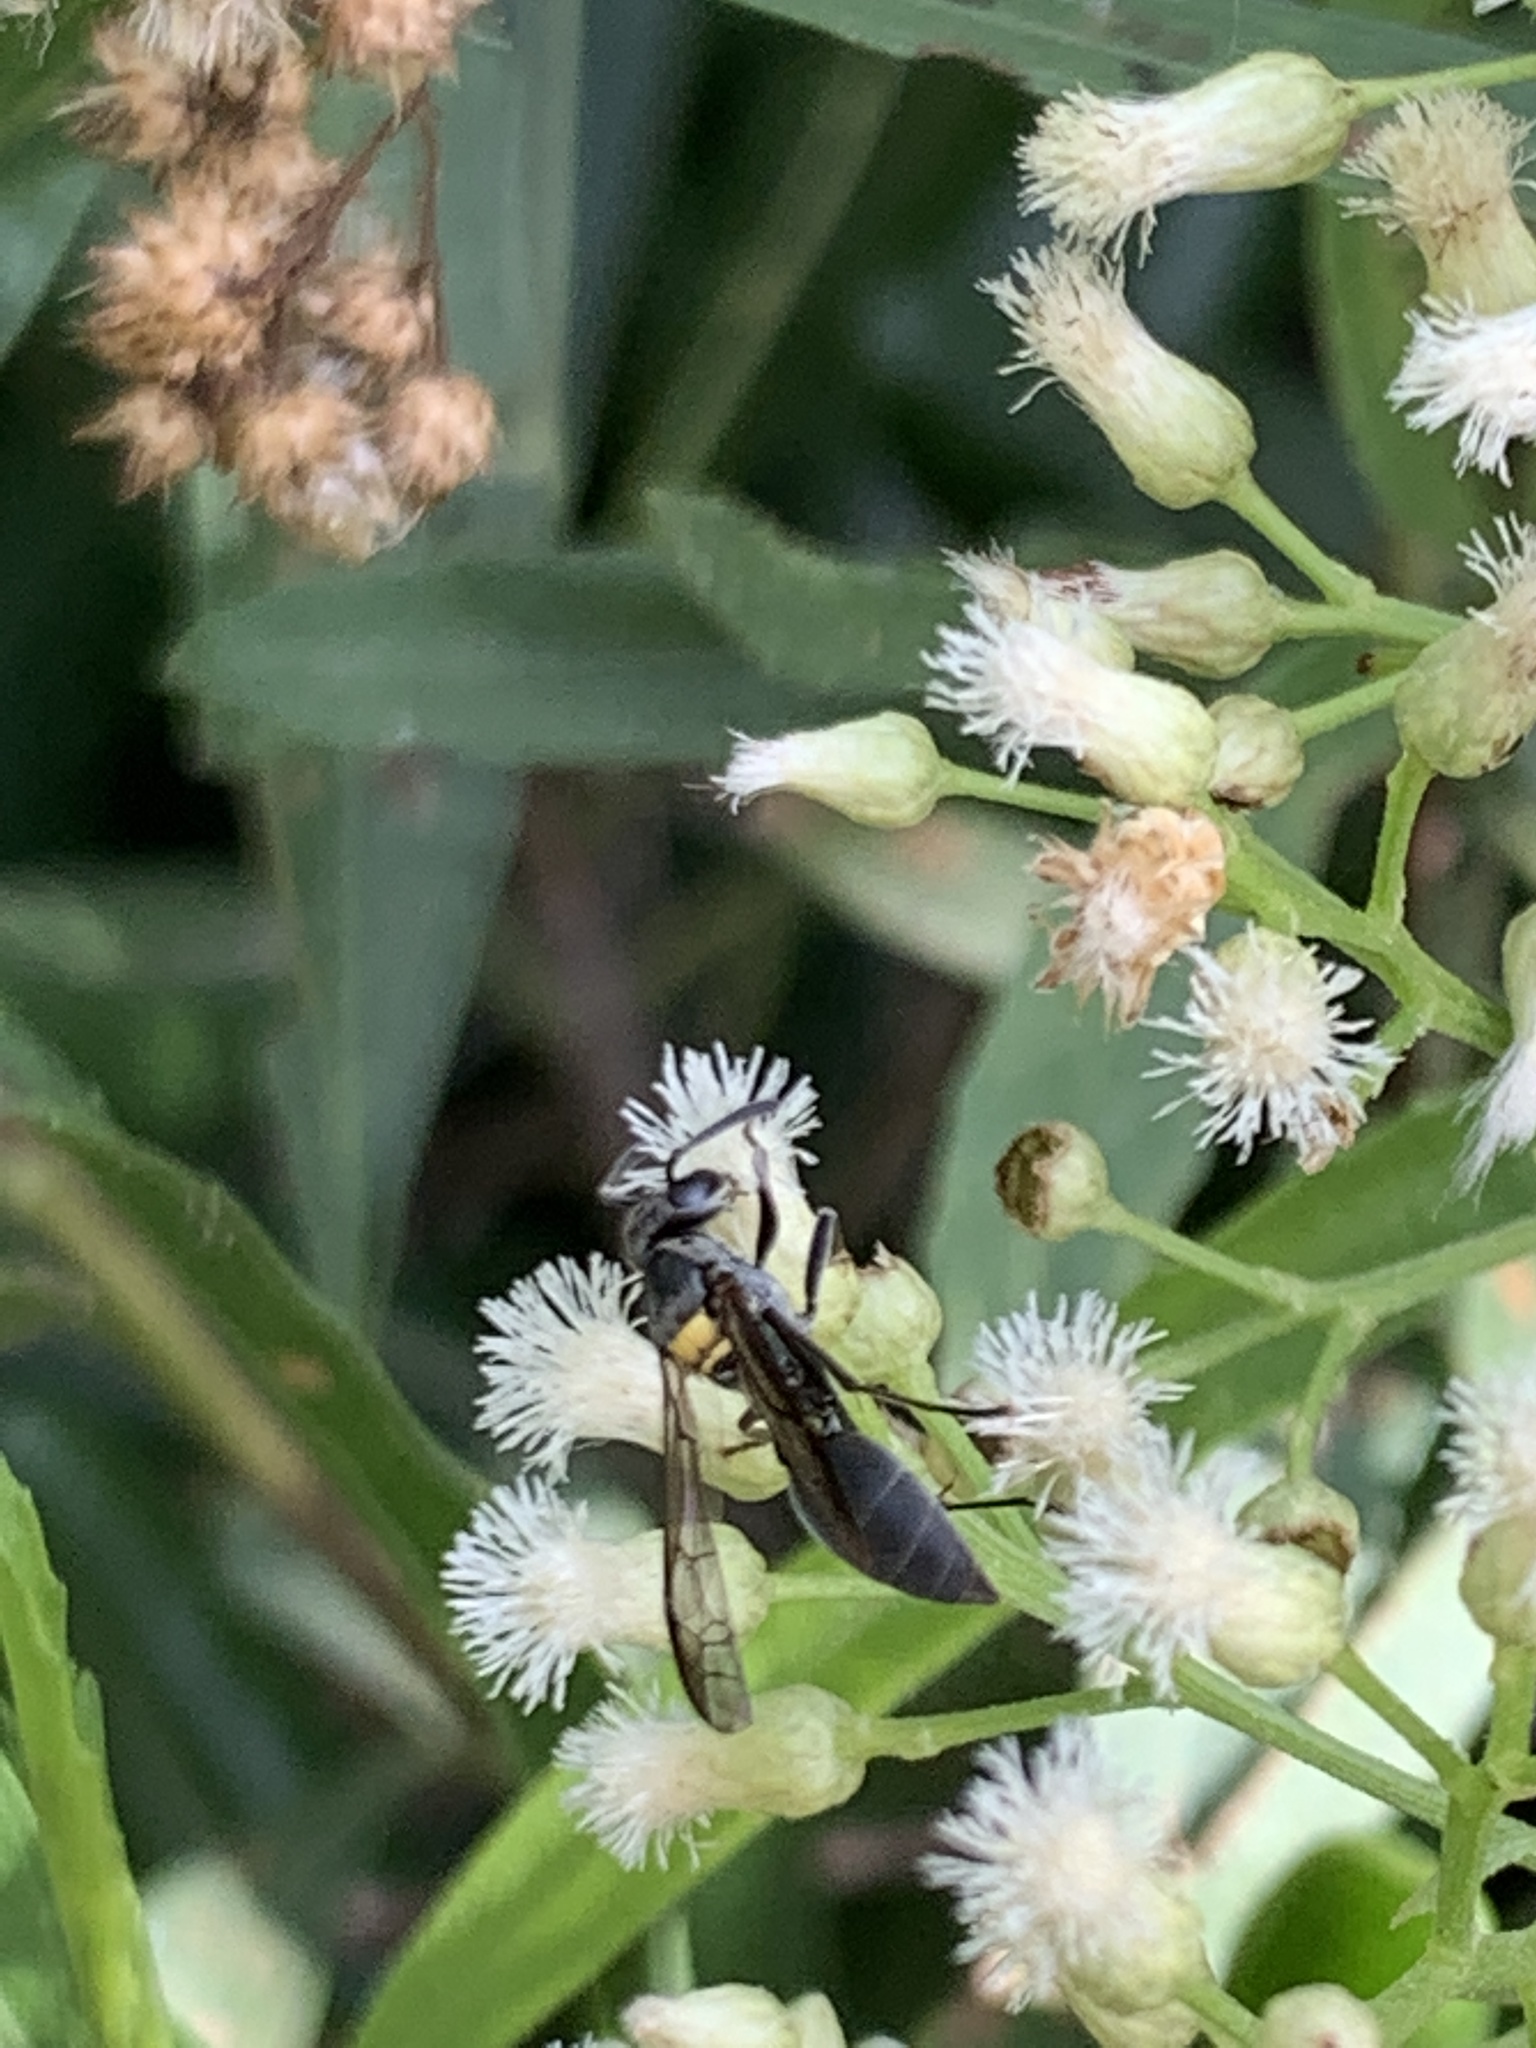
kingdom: Animalia
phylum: Arthropoda
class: Insecta
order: Hymenoptera
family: Eumenidae
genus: Polybia
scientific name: Polybia scutellaris
